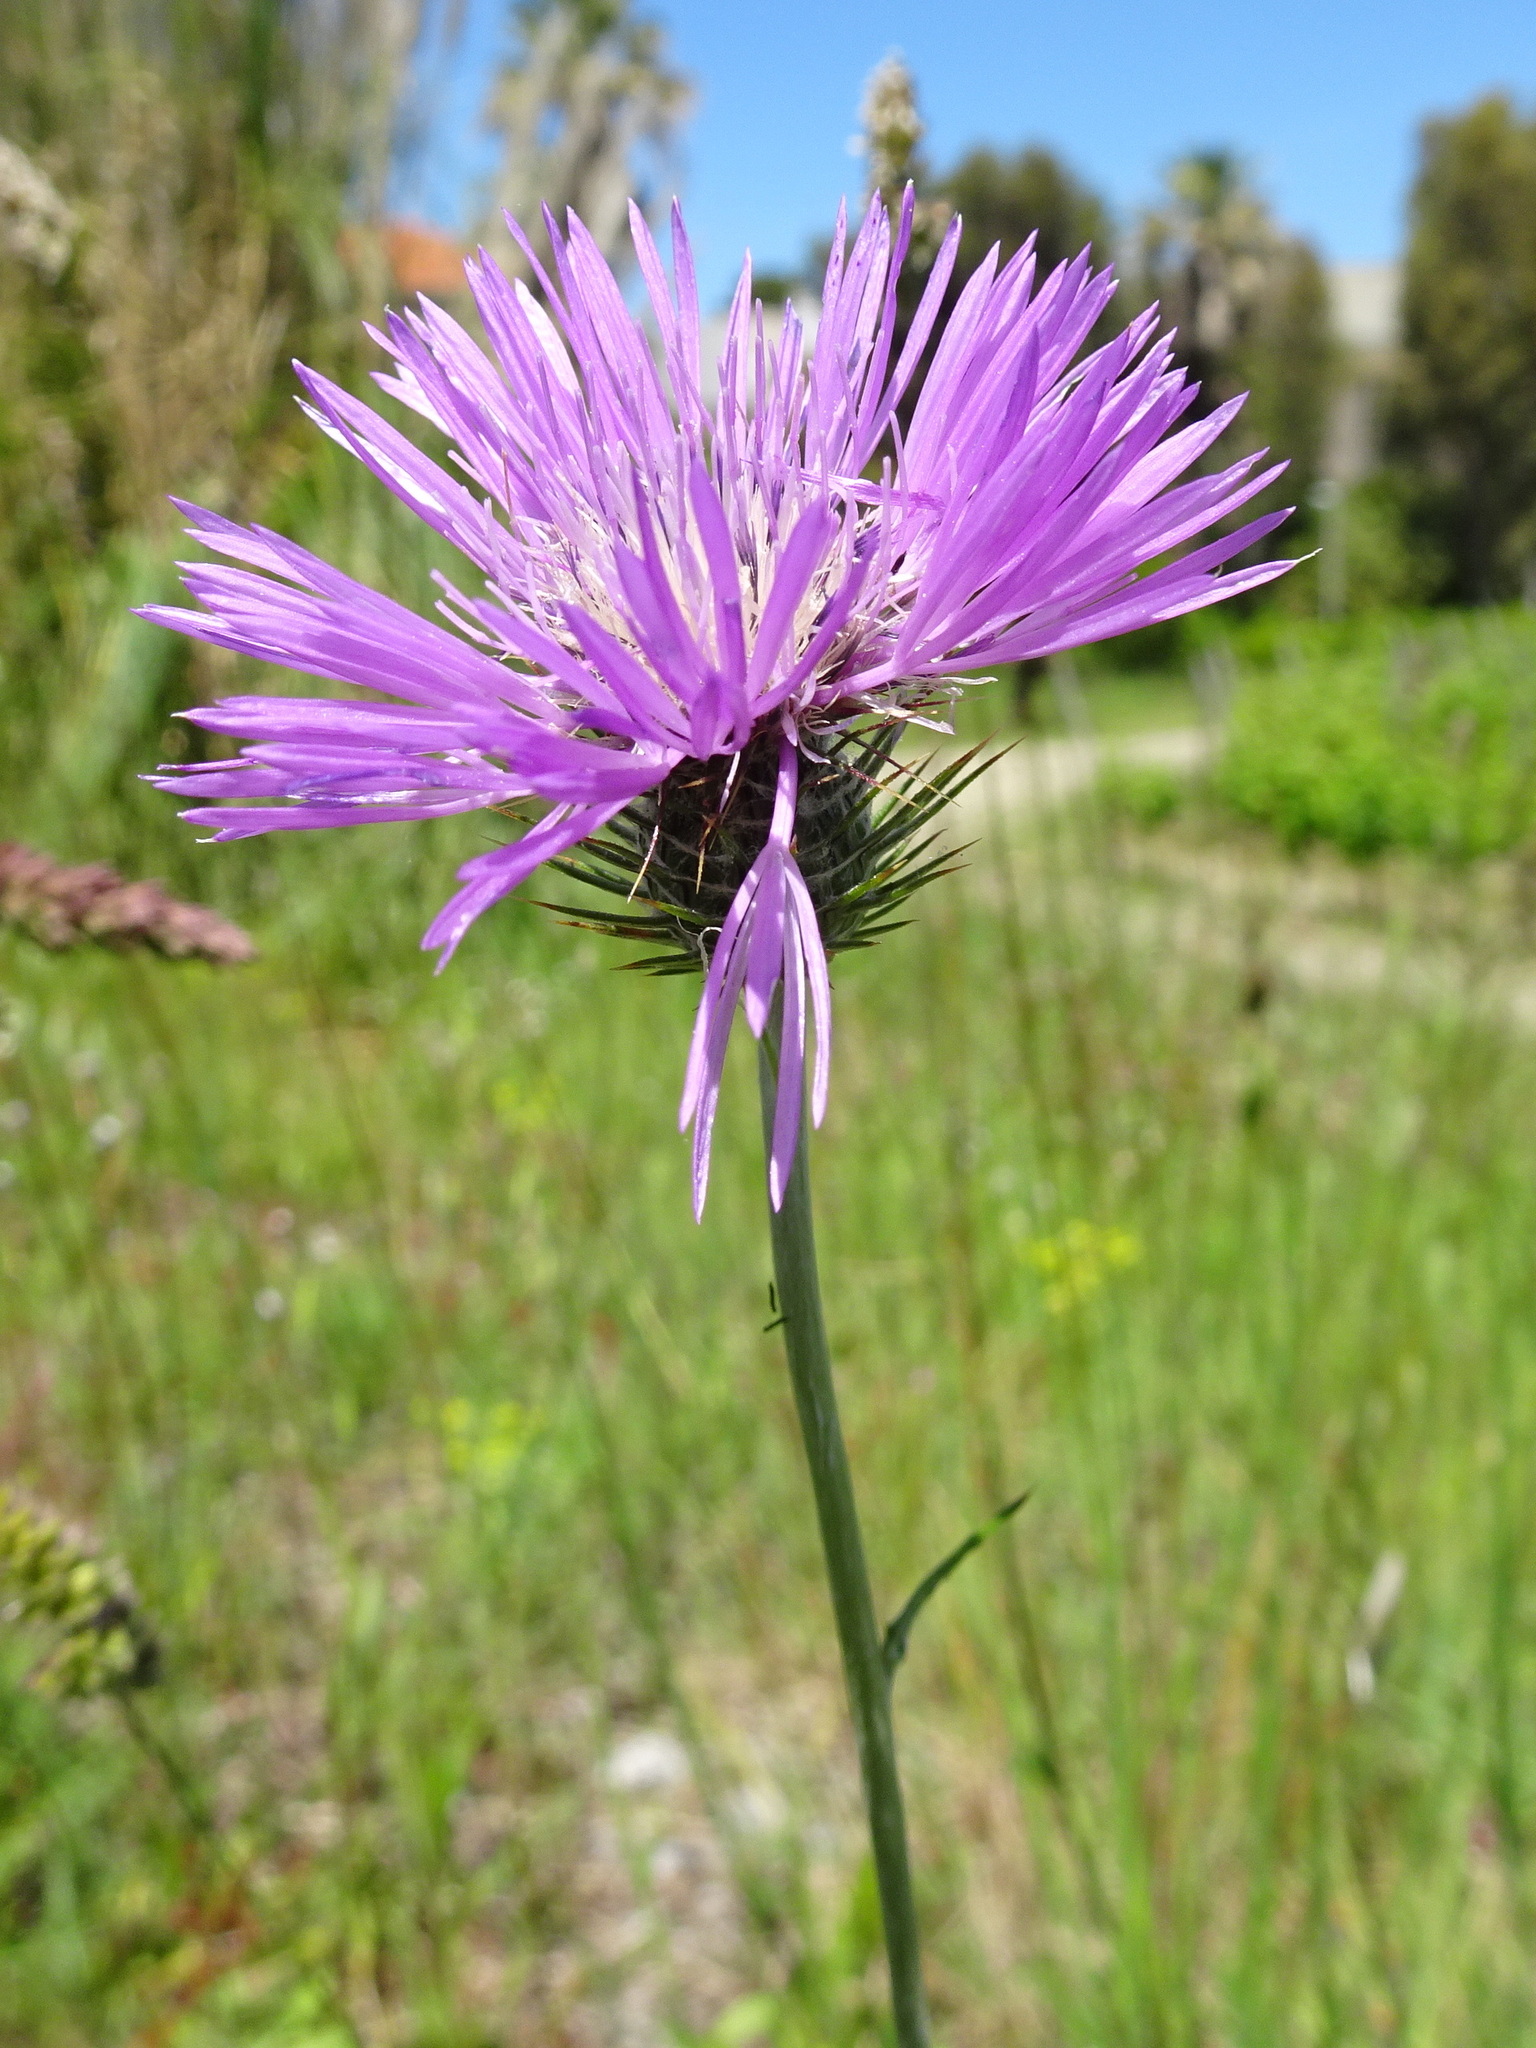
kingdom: Plantae
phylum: Tracheophyta
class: Magnoliopsida
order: Asterales
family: Asteraceae
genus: Galactites
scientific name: Galactites tomentosa
